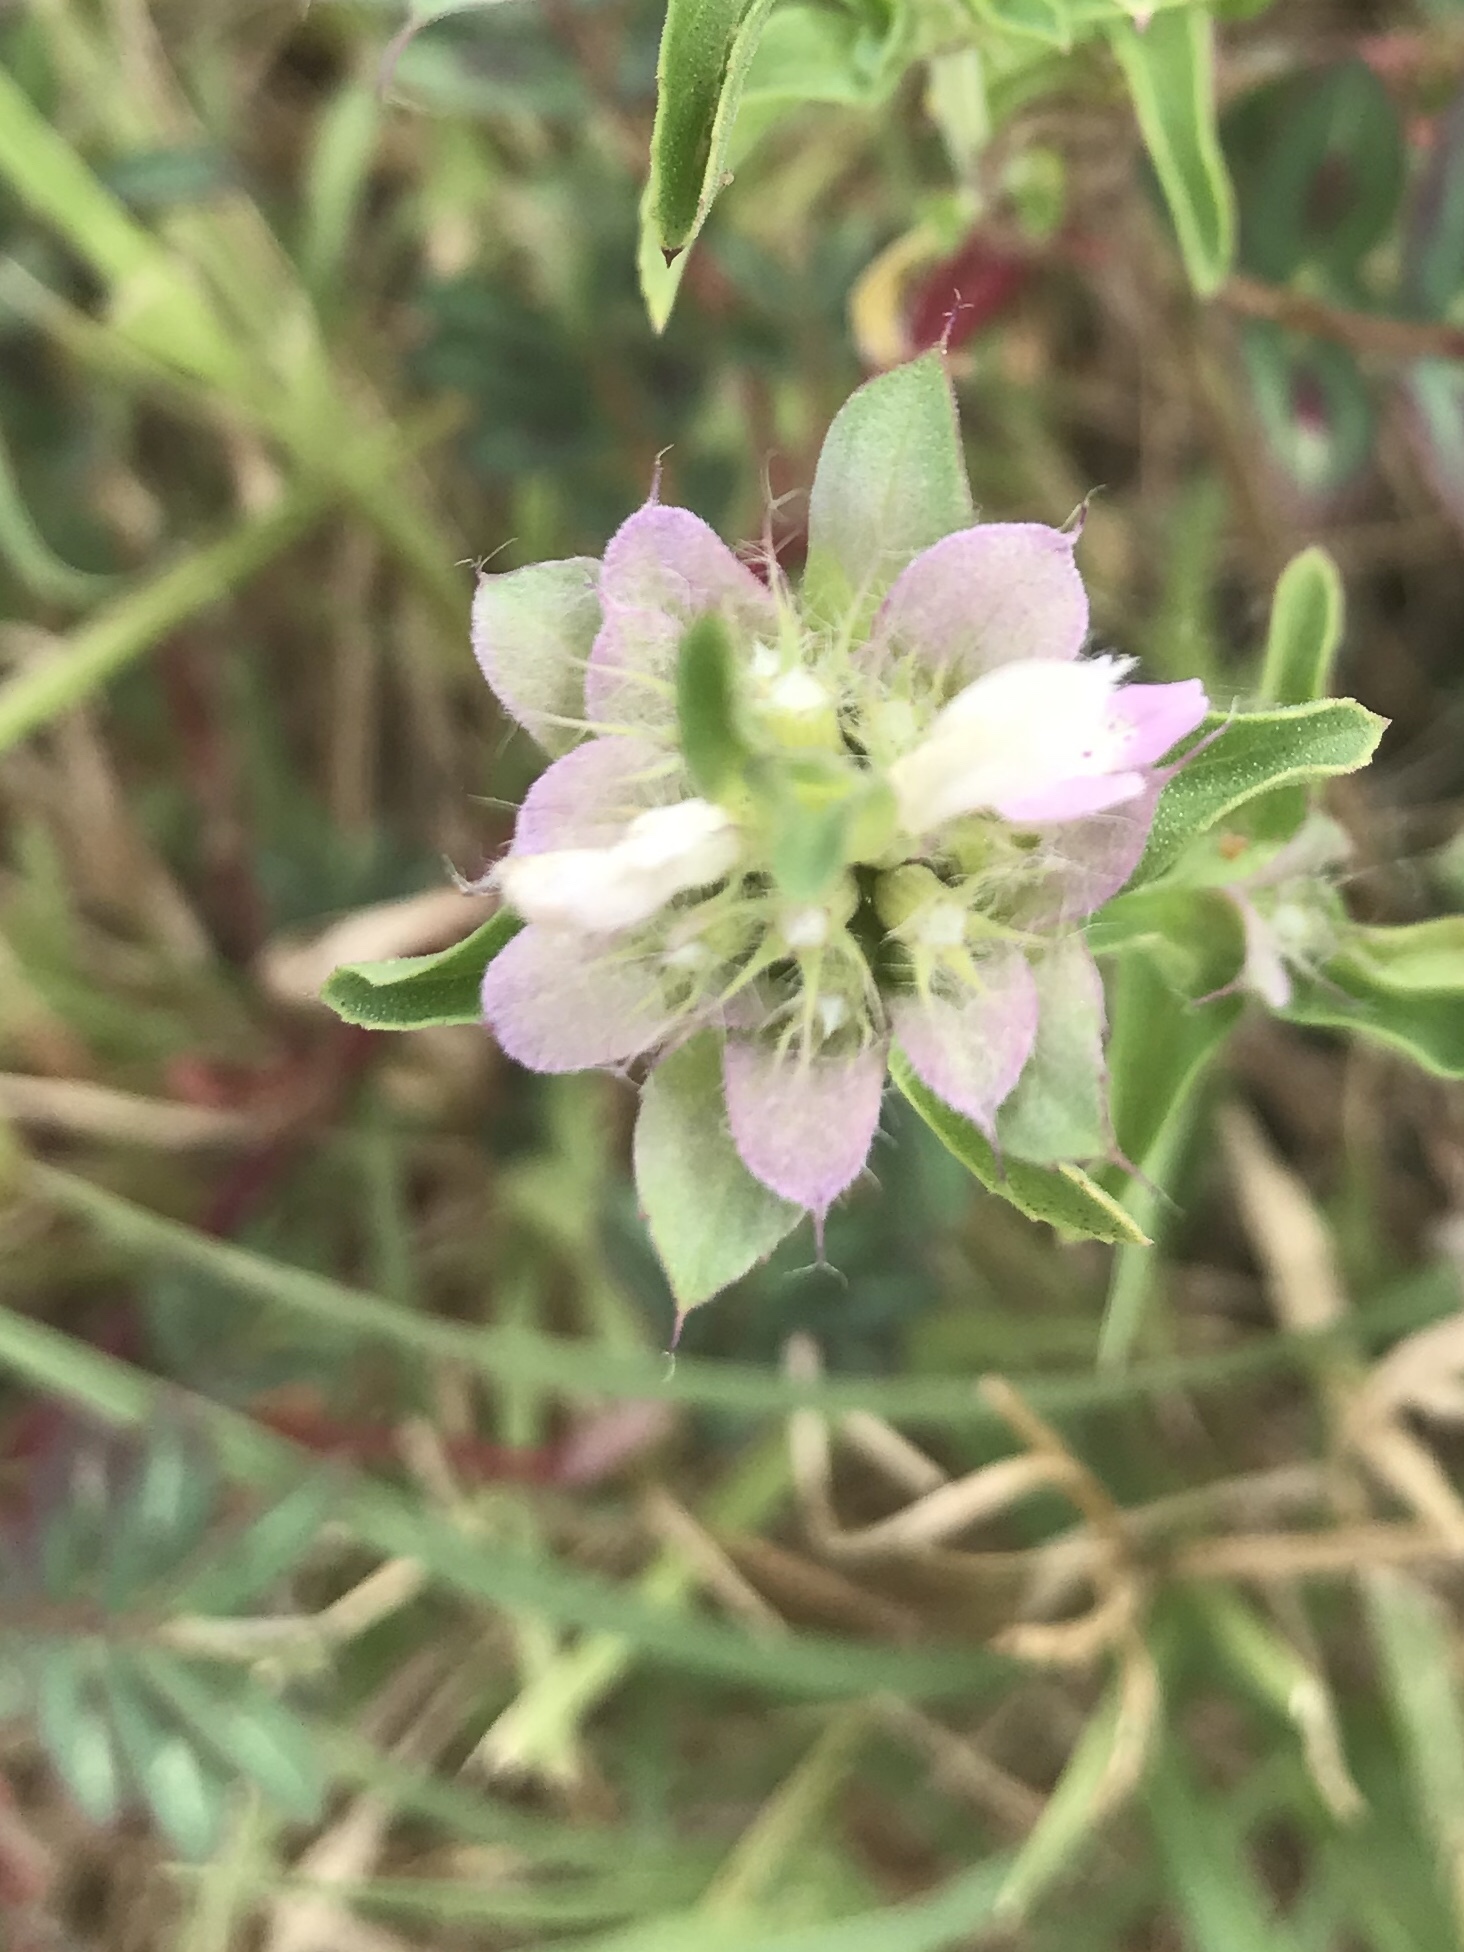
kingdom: Plantae
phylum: Tracheophyta
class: Magnoliopsida
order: Lamiales
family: Lamiaceae
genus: Monarda
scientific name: Monarda citriodora
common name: Lemon beebalm
